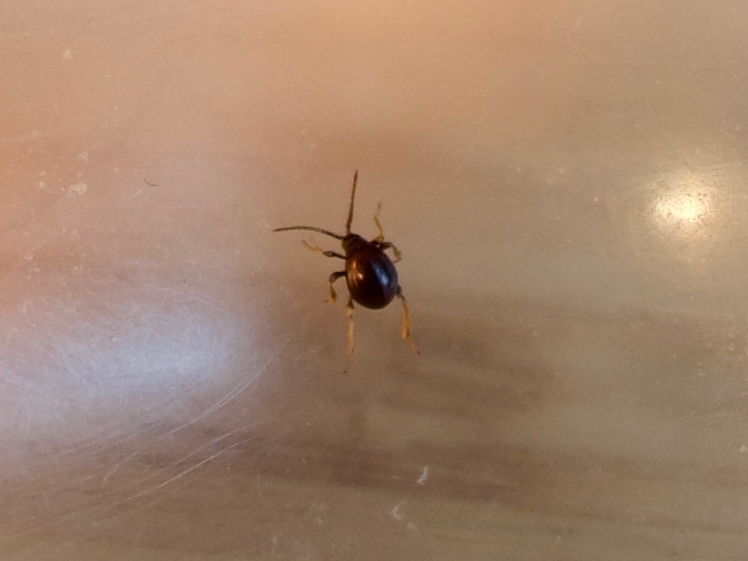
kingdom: Animalia
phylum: Arthropoda
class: Insecta
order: Coleoptera
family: Ptinidae
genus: Gibbium
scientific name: Gibbium aequinoctiale
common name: Smooth spider beetle
